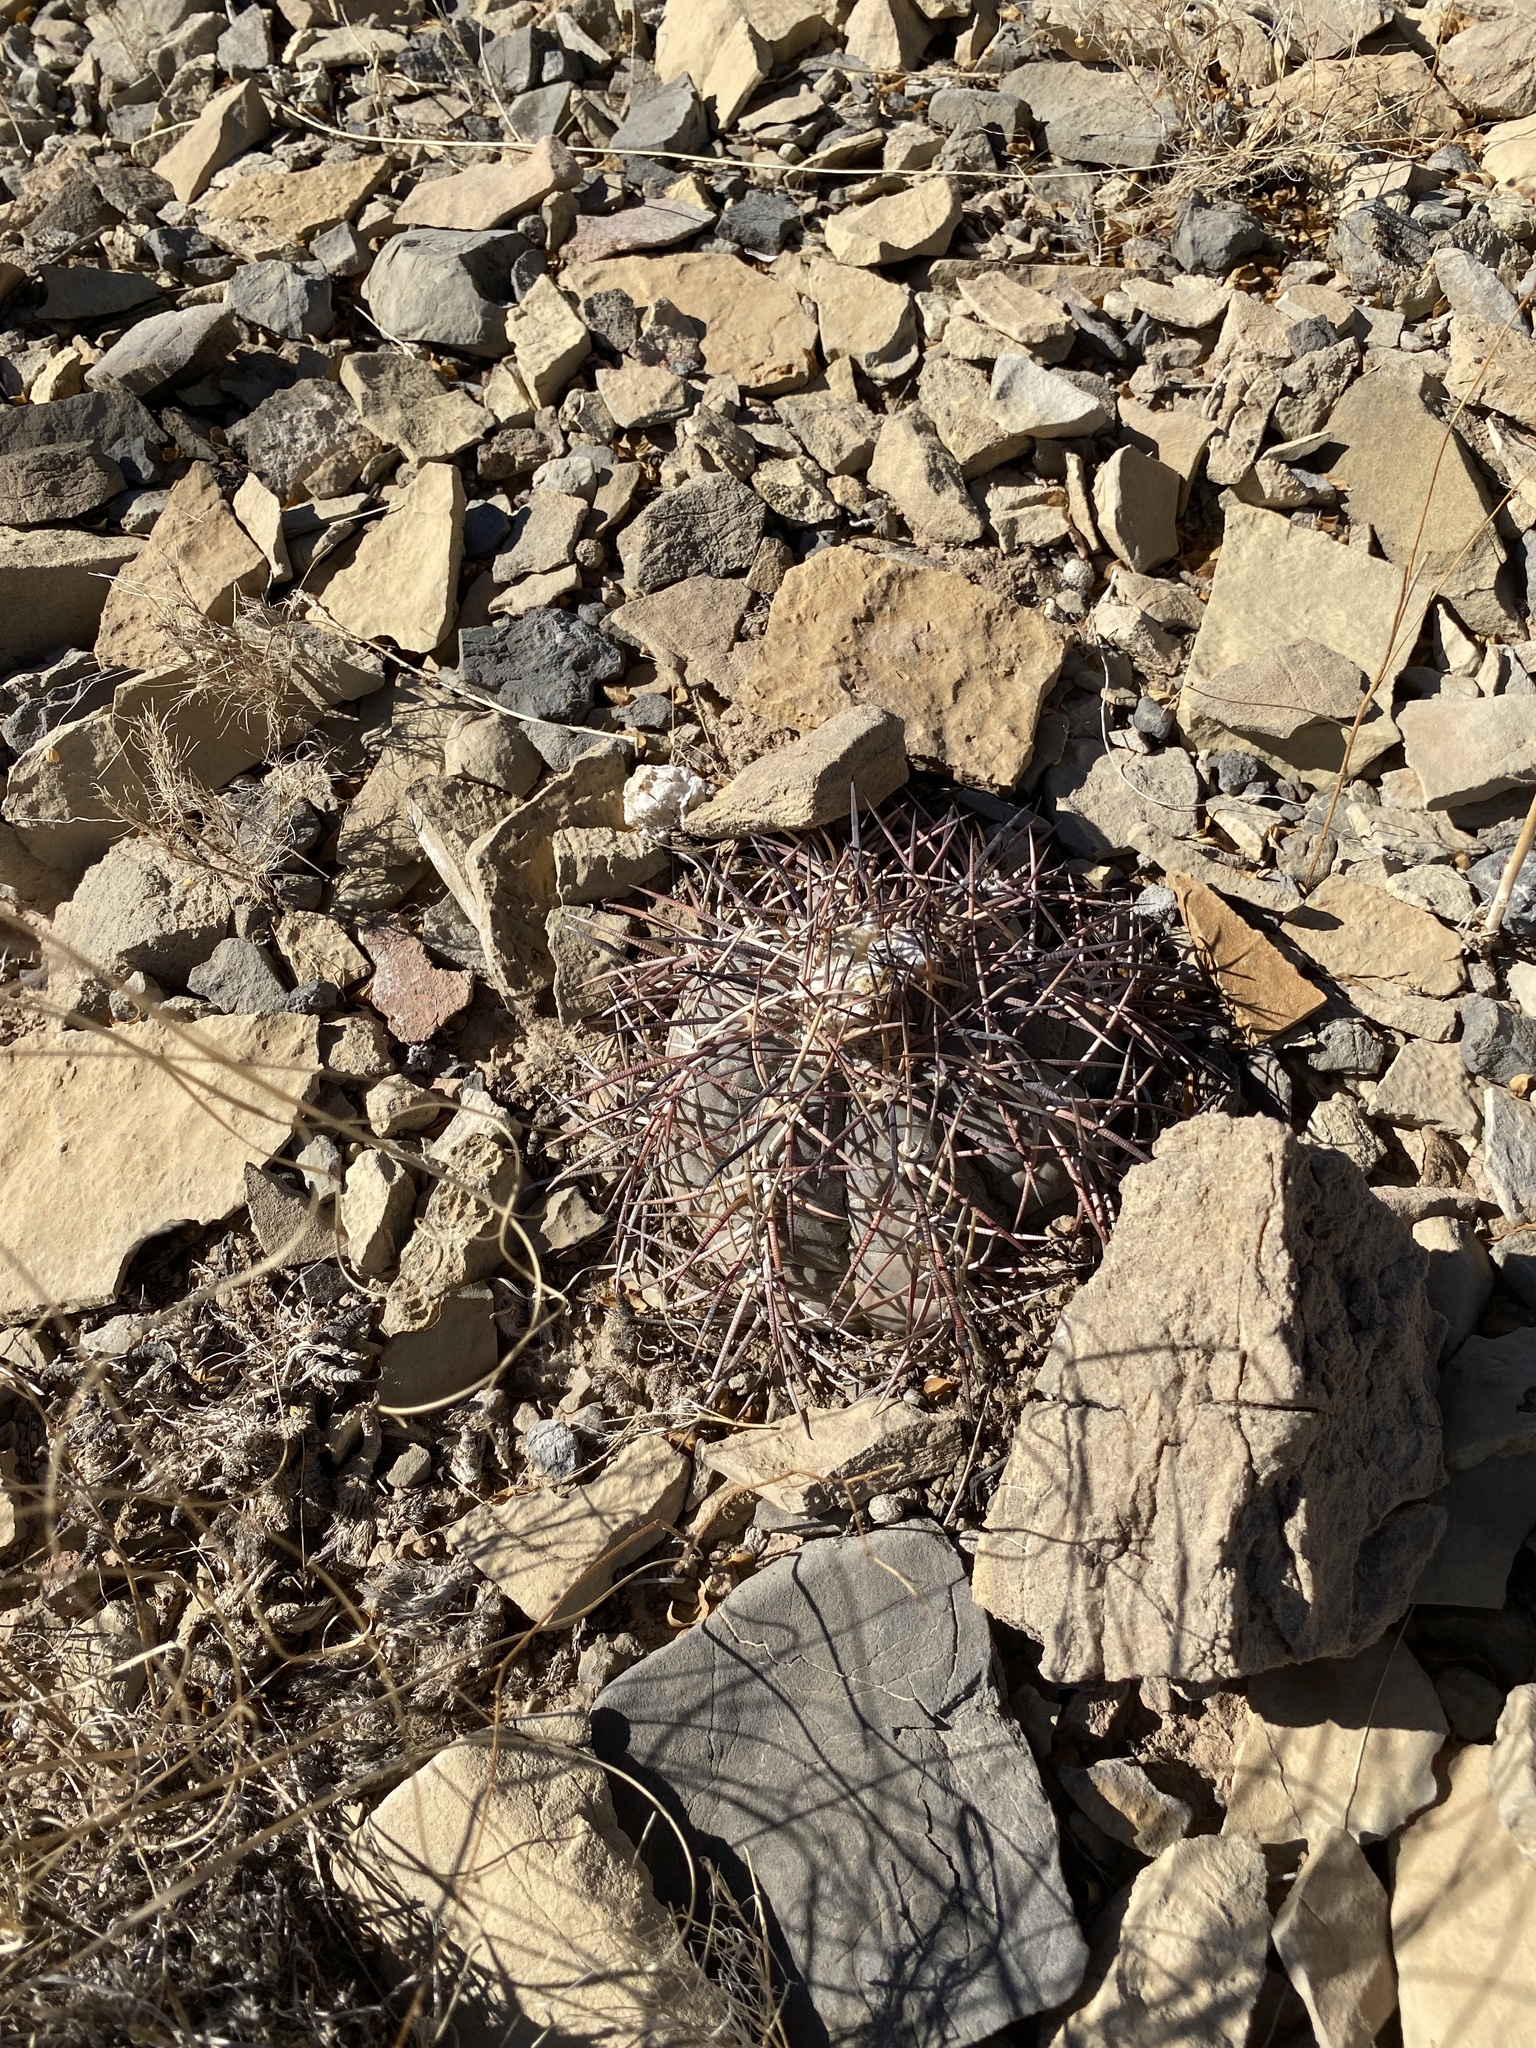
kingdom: Plantae
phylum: Tracheophyta
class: Magnoliopsida
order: Caryophyllales
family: Cactaceae
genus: Echinocactus
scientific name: Echinocactus horizonthalonius
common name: Devilshead
